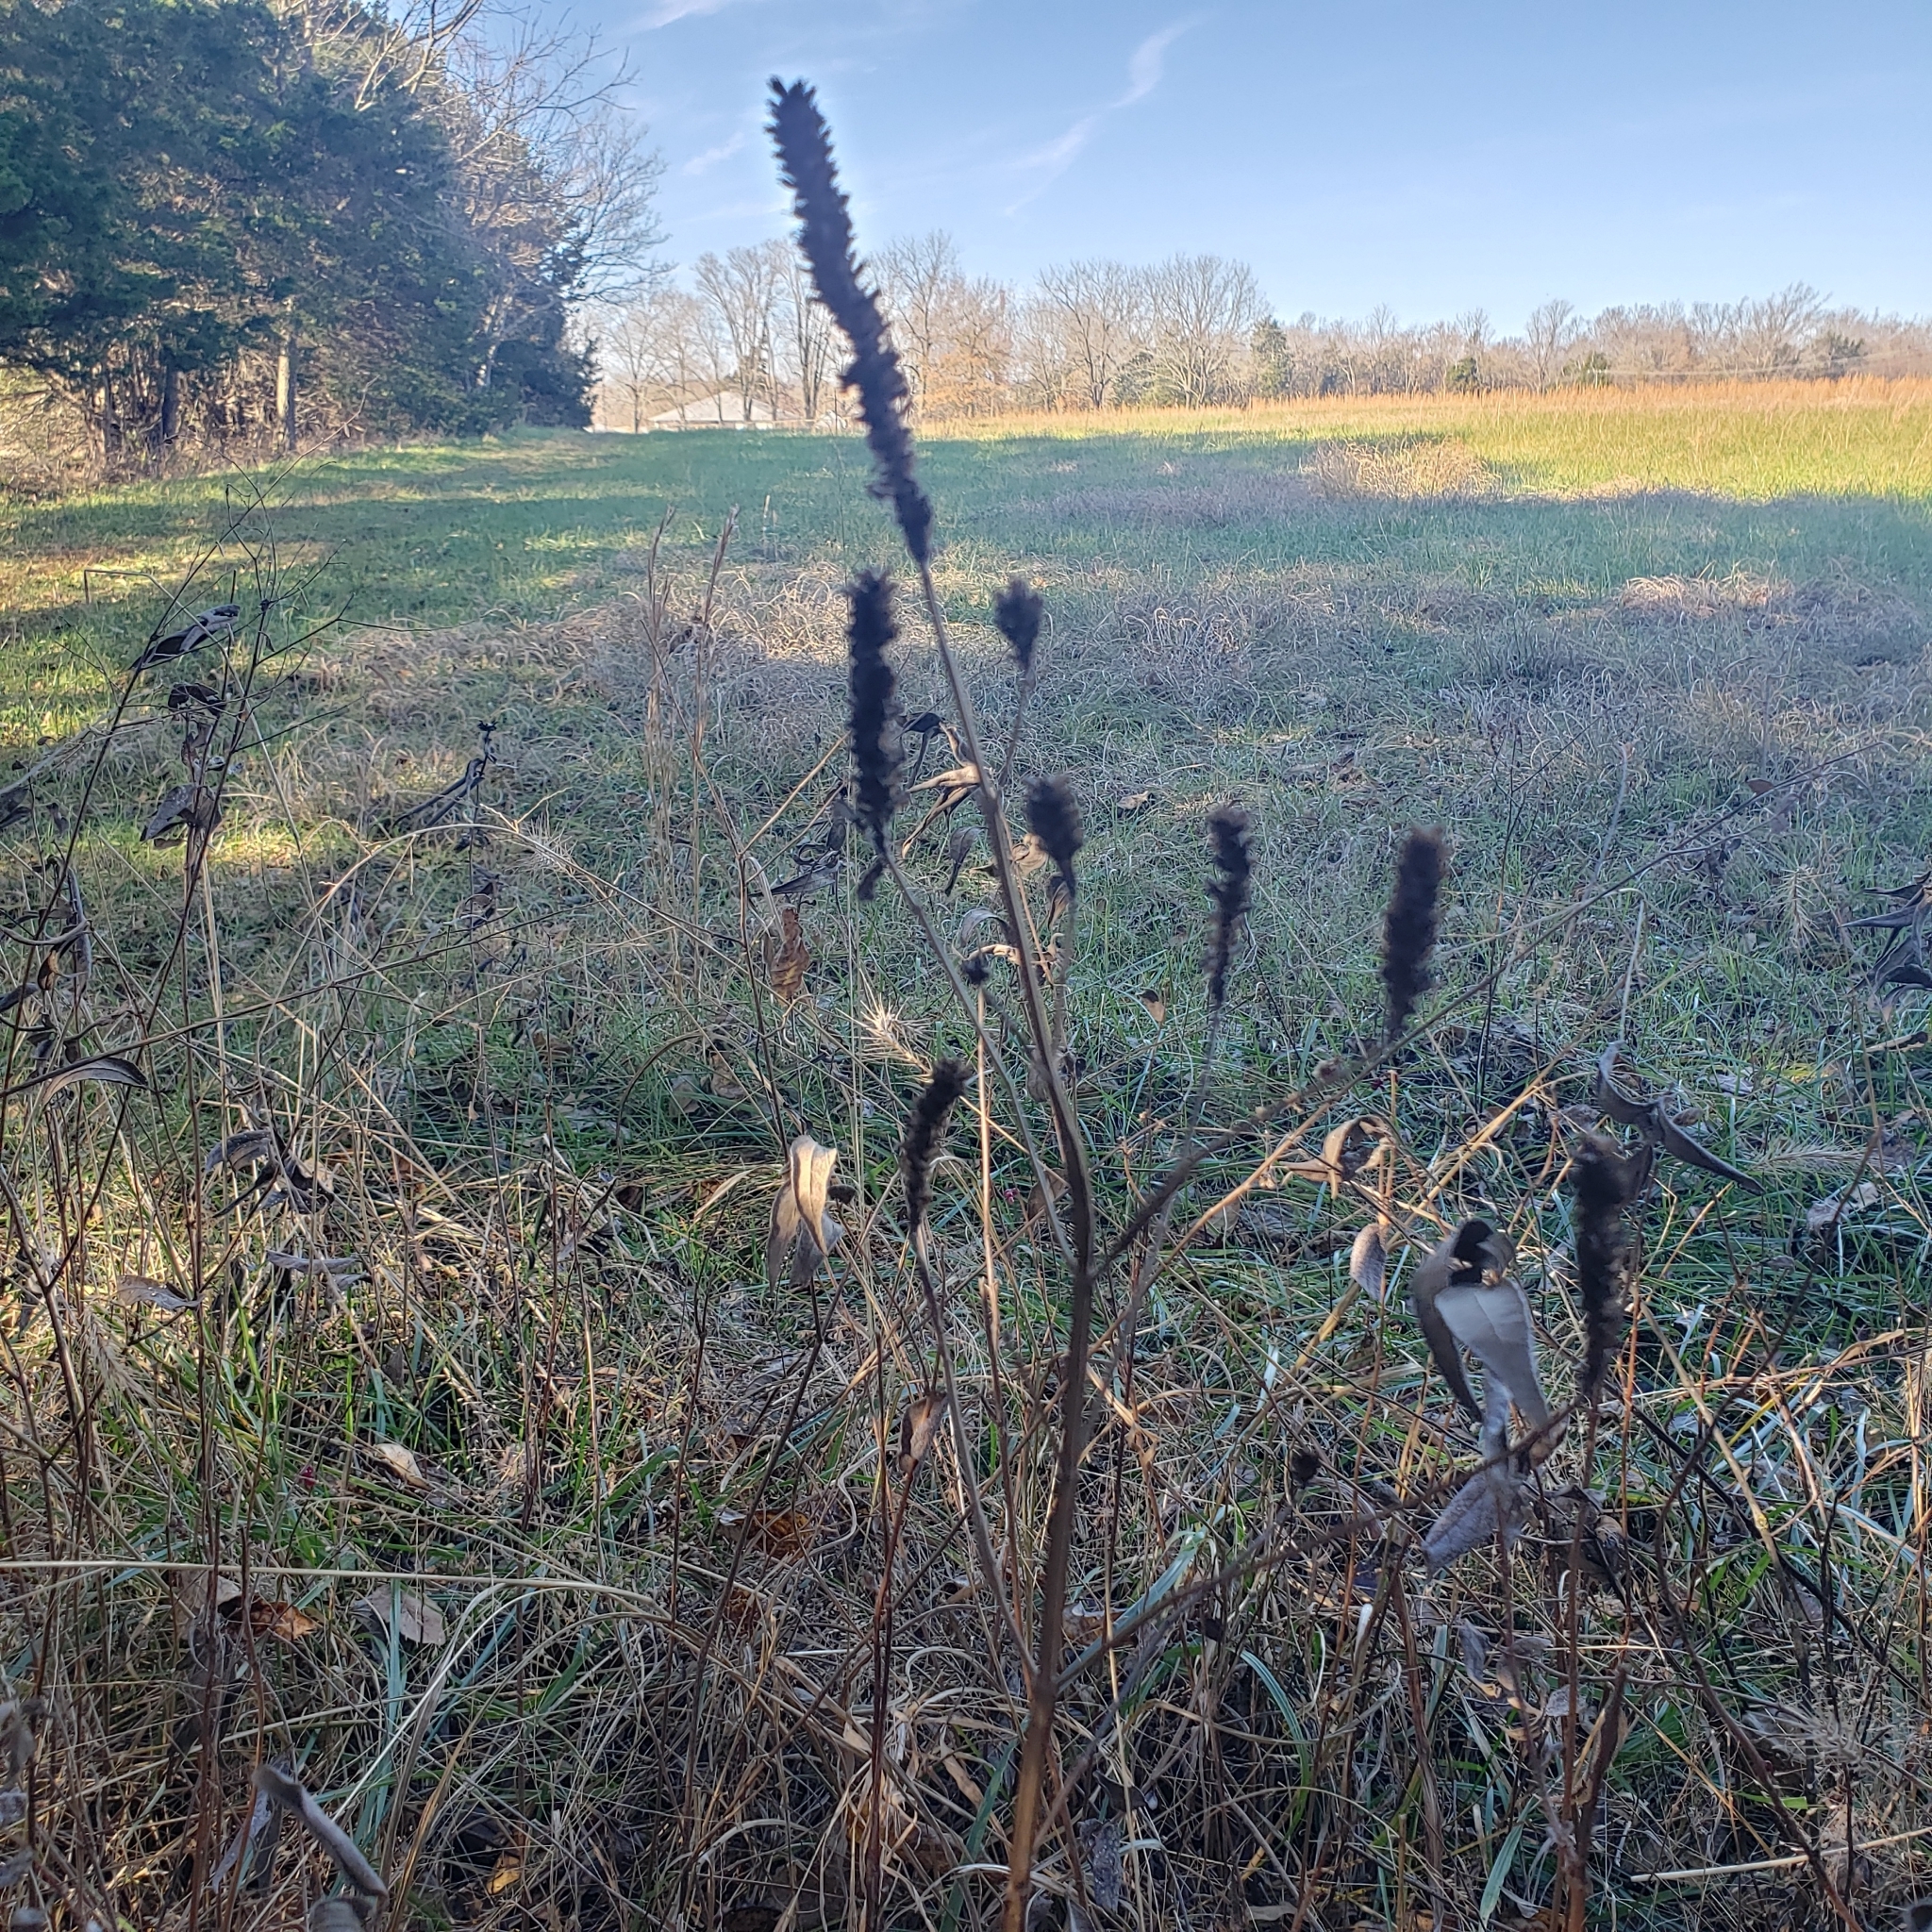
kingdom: Plantae
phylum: Tracheophyta
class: Magnoliopsida
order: Lamiales
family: Lamiaceae
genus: Agastache
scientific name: Agastache nepetoides
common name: Catnip giant hyssop
